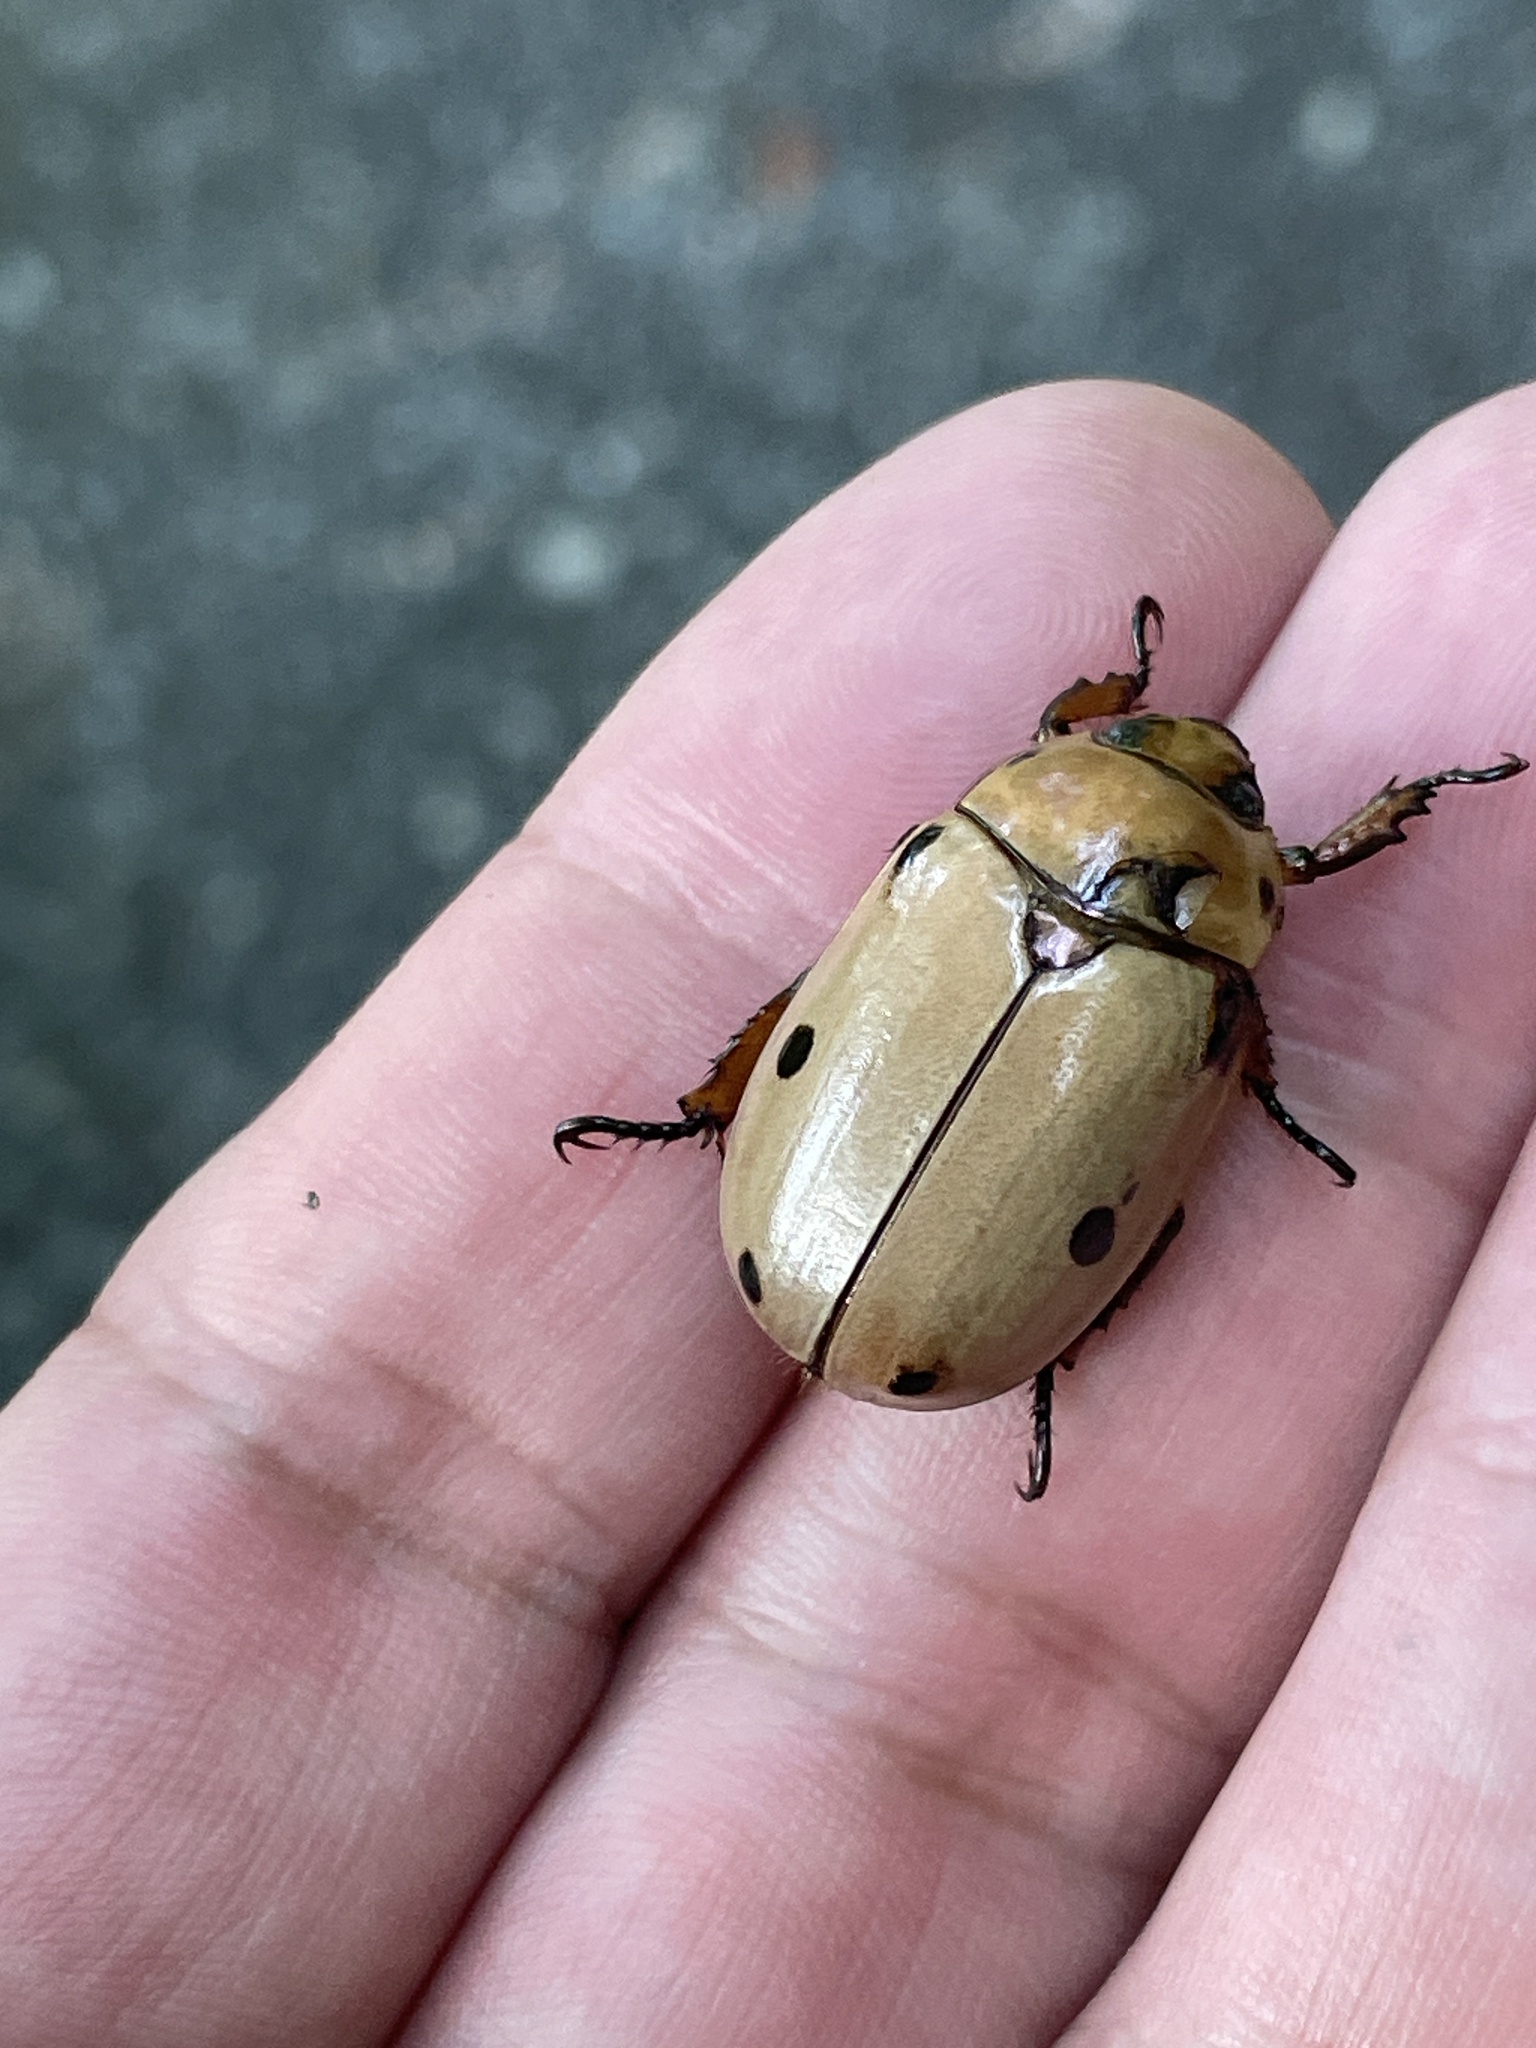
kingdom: Animalia
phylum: Arthropoda
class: Insecta
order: Coleoptera
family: Scarabaeidae
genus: Pelidnota
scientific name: Pelidnota punctata
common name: Grapevine beetle
